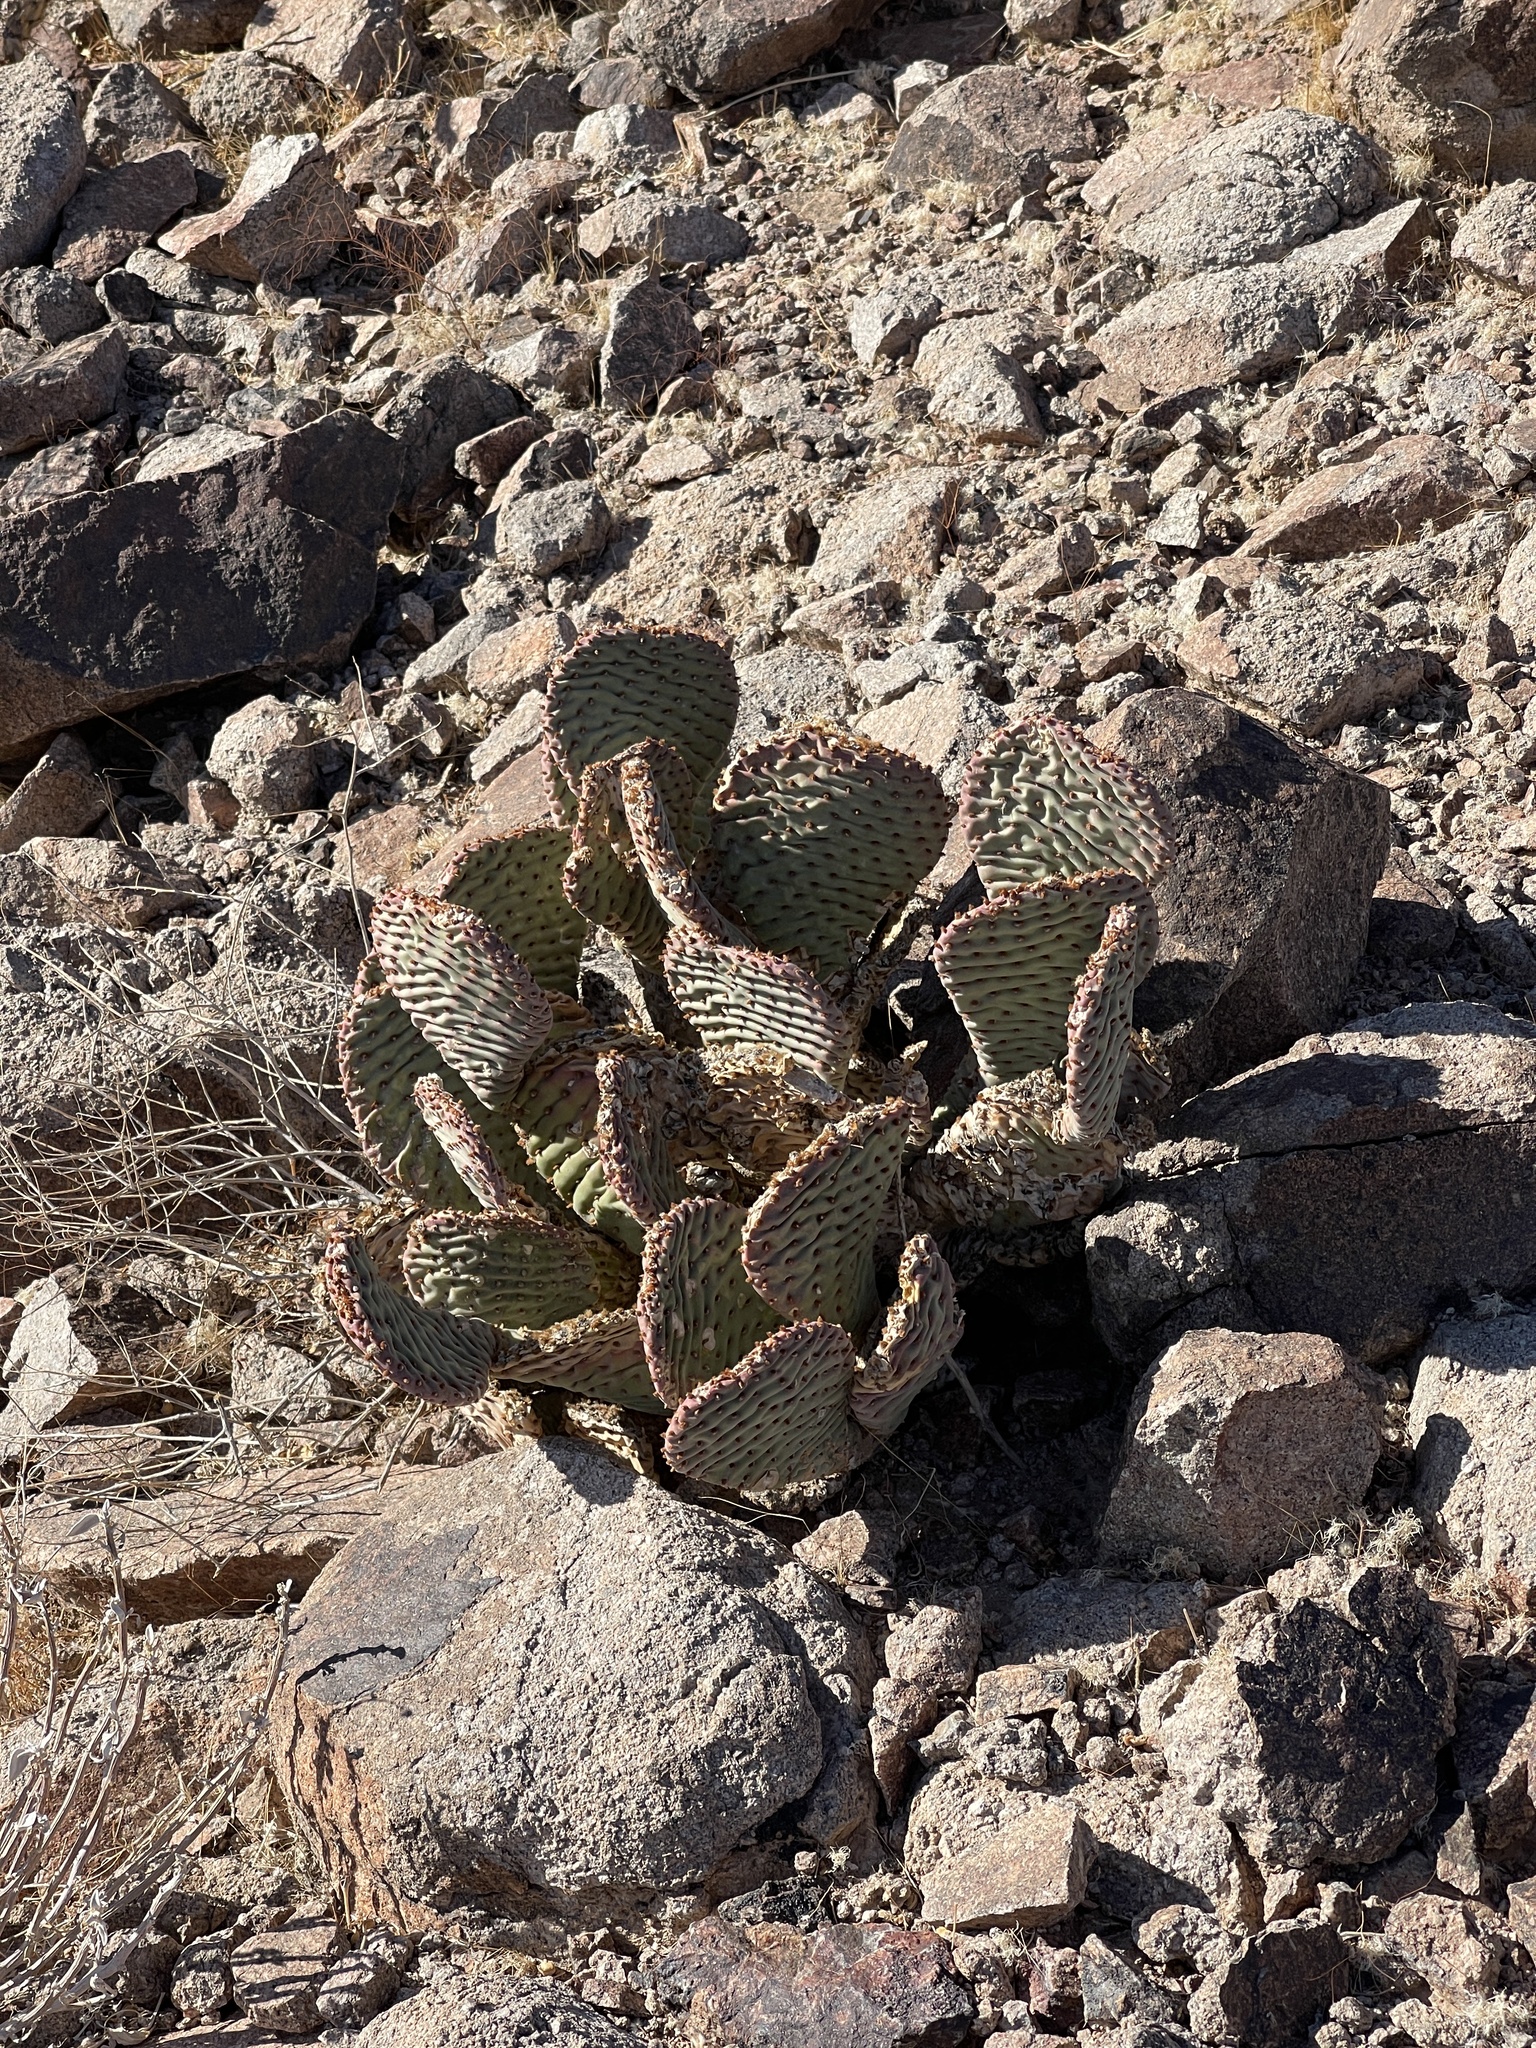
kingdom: Plantae
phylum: Tracheophyta
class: Magnoliopsida
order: Caryophyllales
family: Cactaceae
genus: Opuntia
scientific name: Opuntia basilaris
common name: Beavertail prickly-pear
